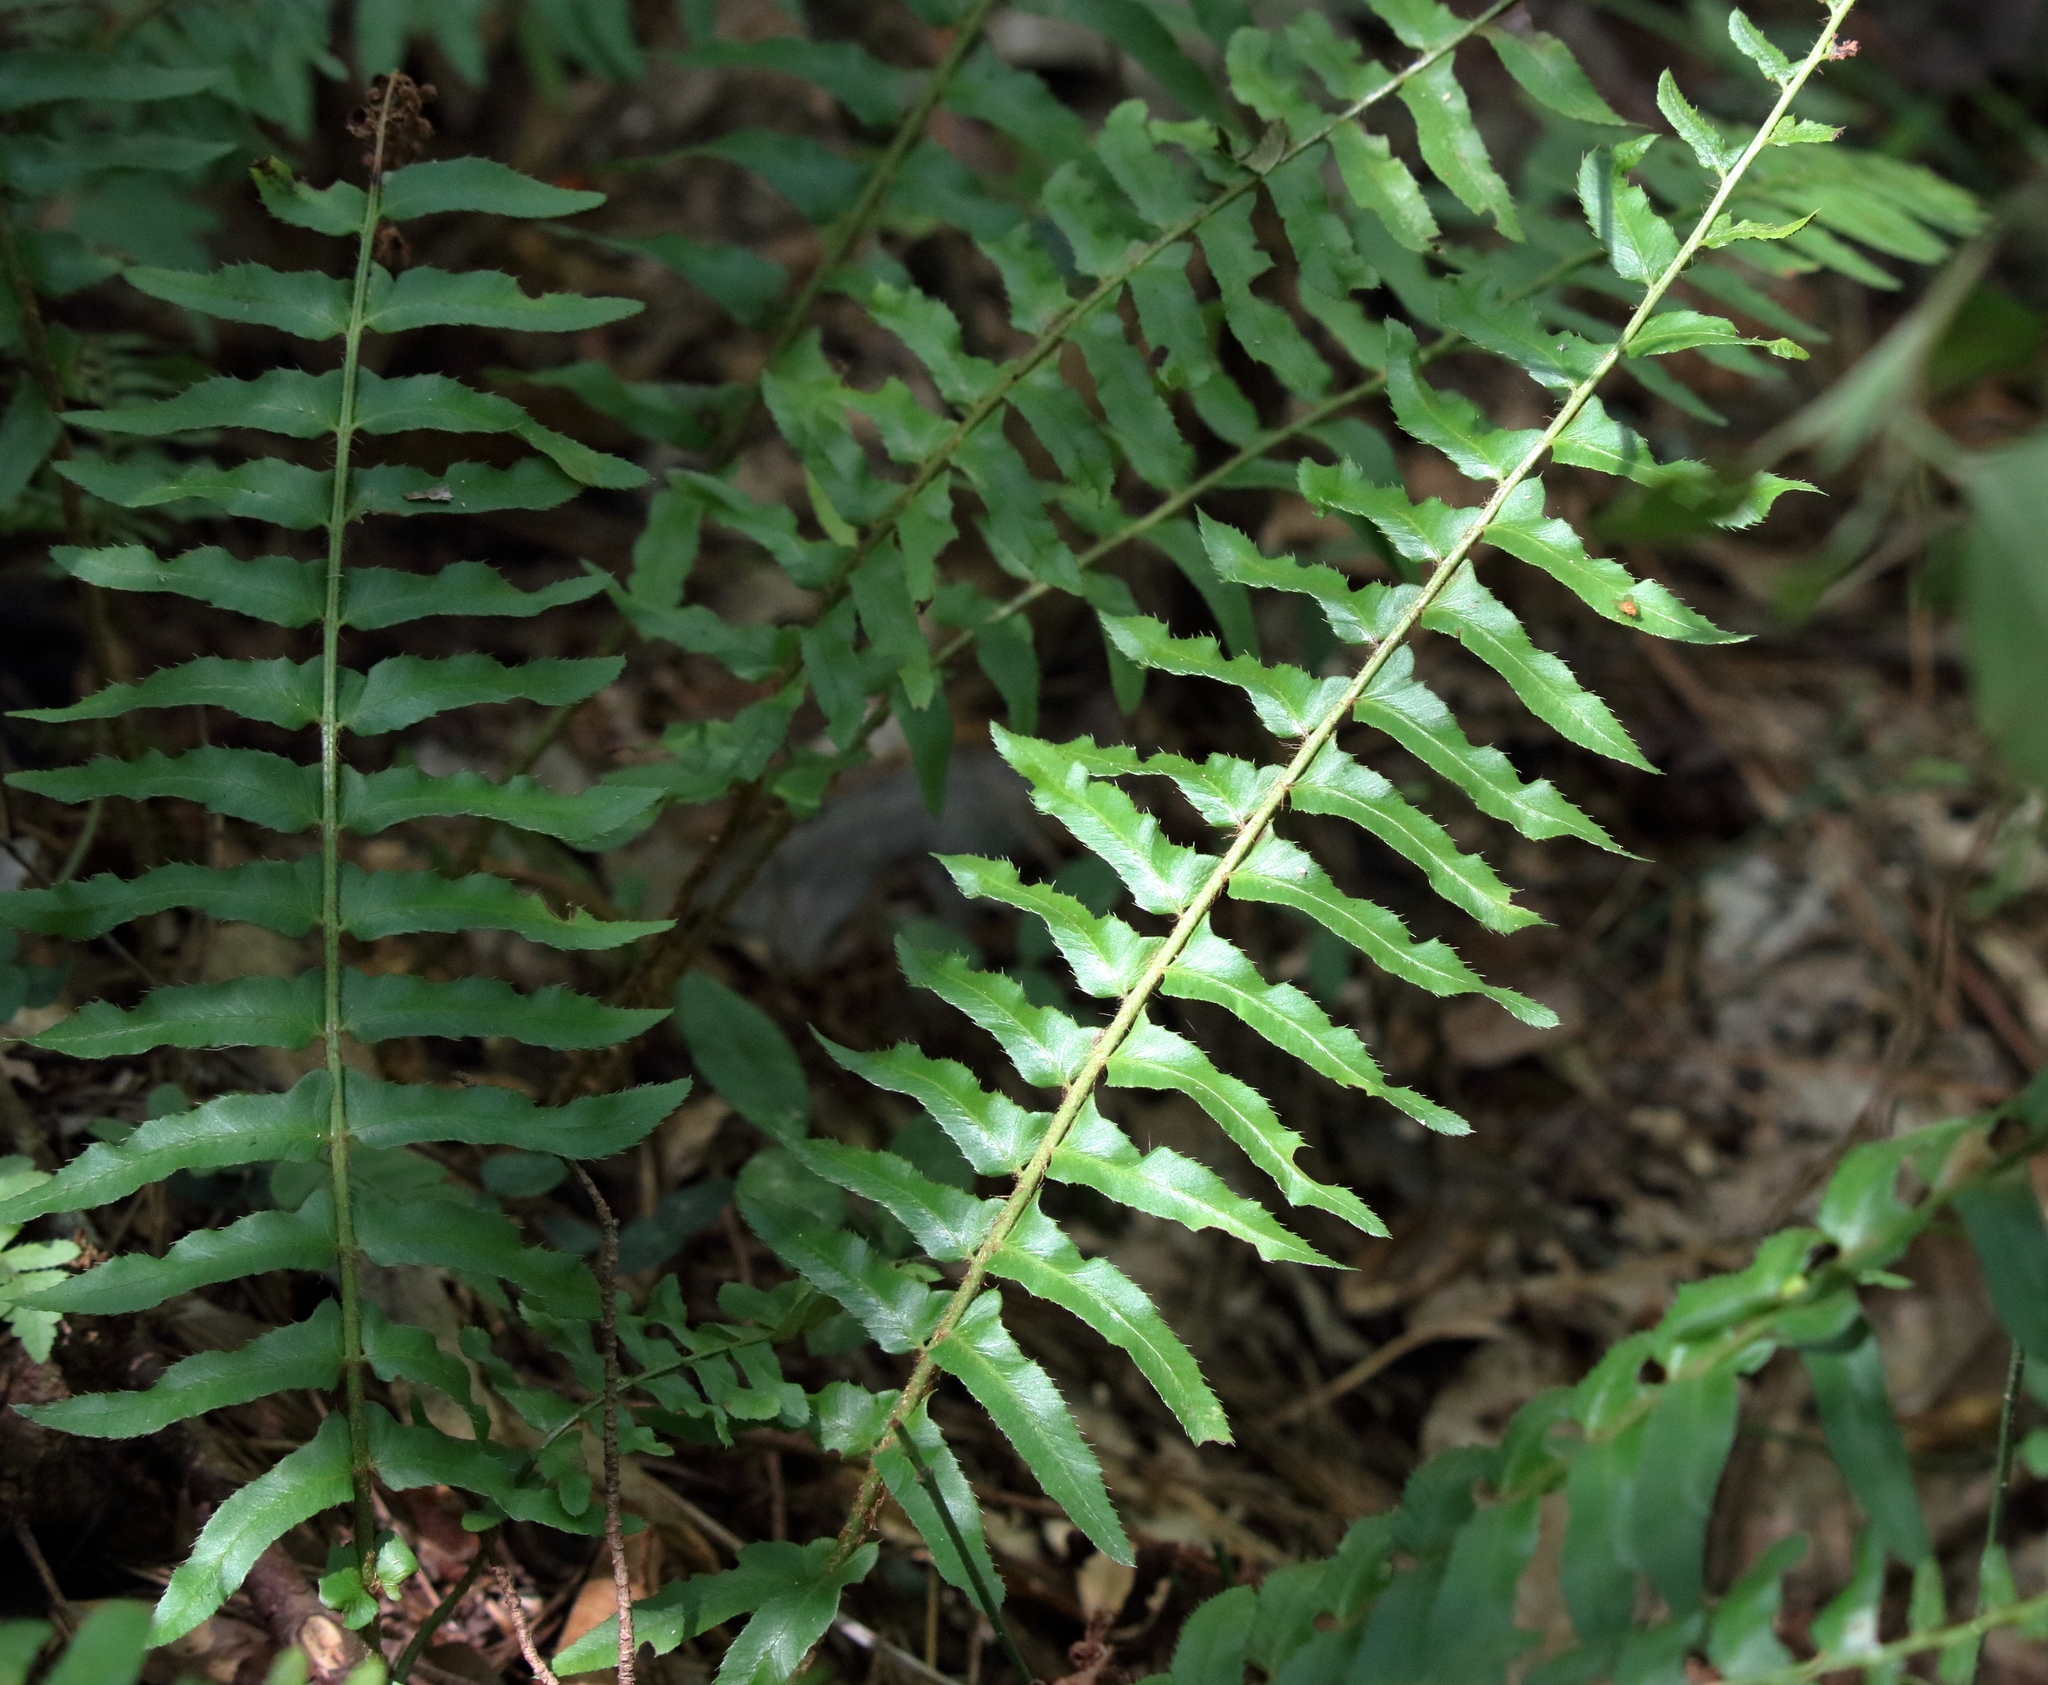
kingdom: Plantae
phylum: Tracheophyta
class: Polypodiopsida
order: Polypodiales
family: Dryopteridaceae
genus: Polystichum
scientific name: Polystichum acrostichoides
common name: Christmas fern
